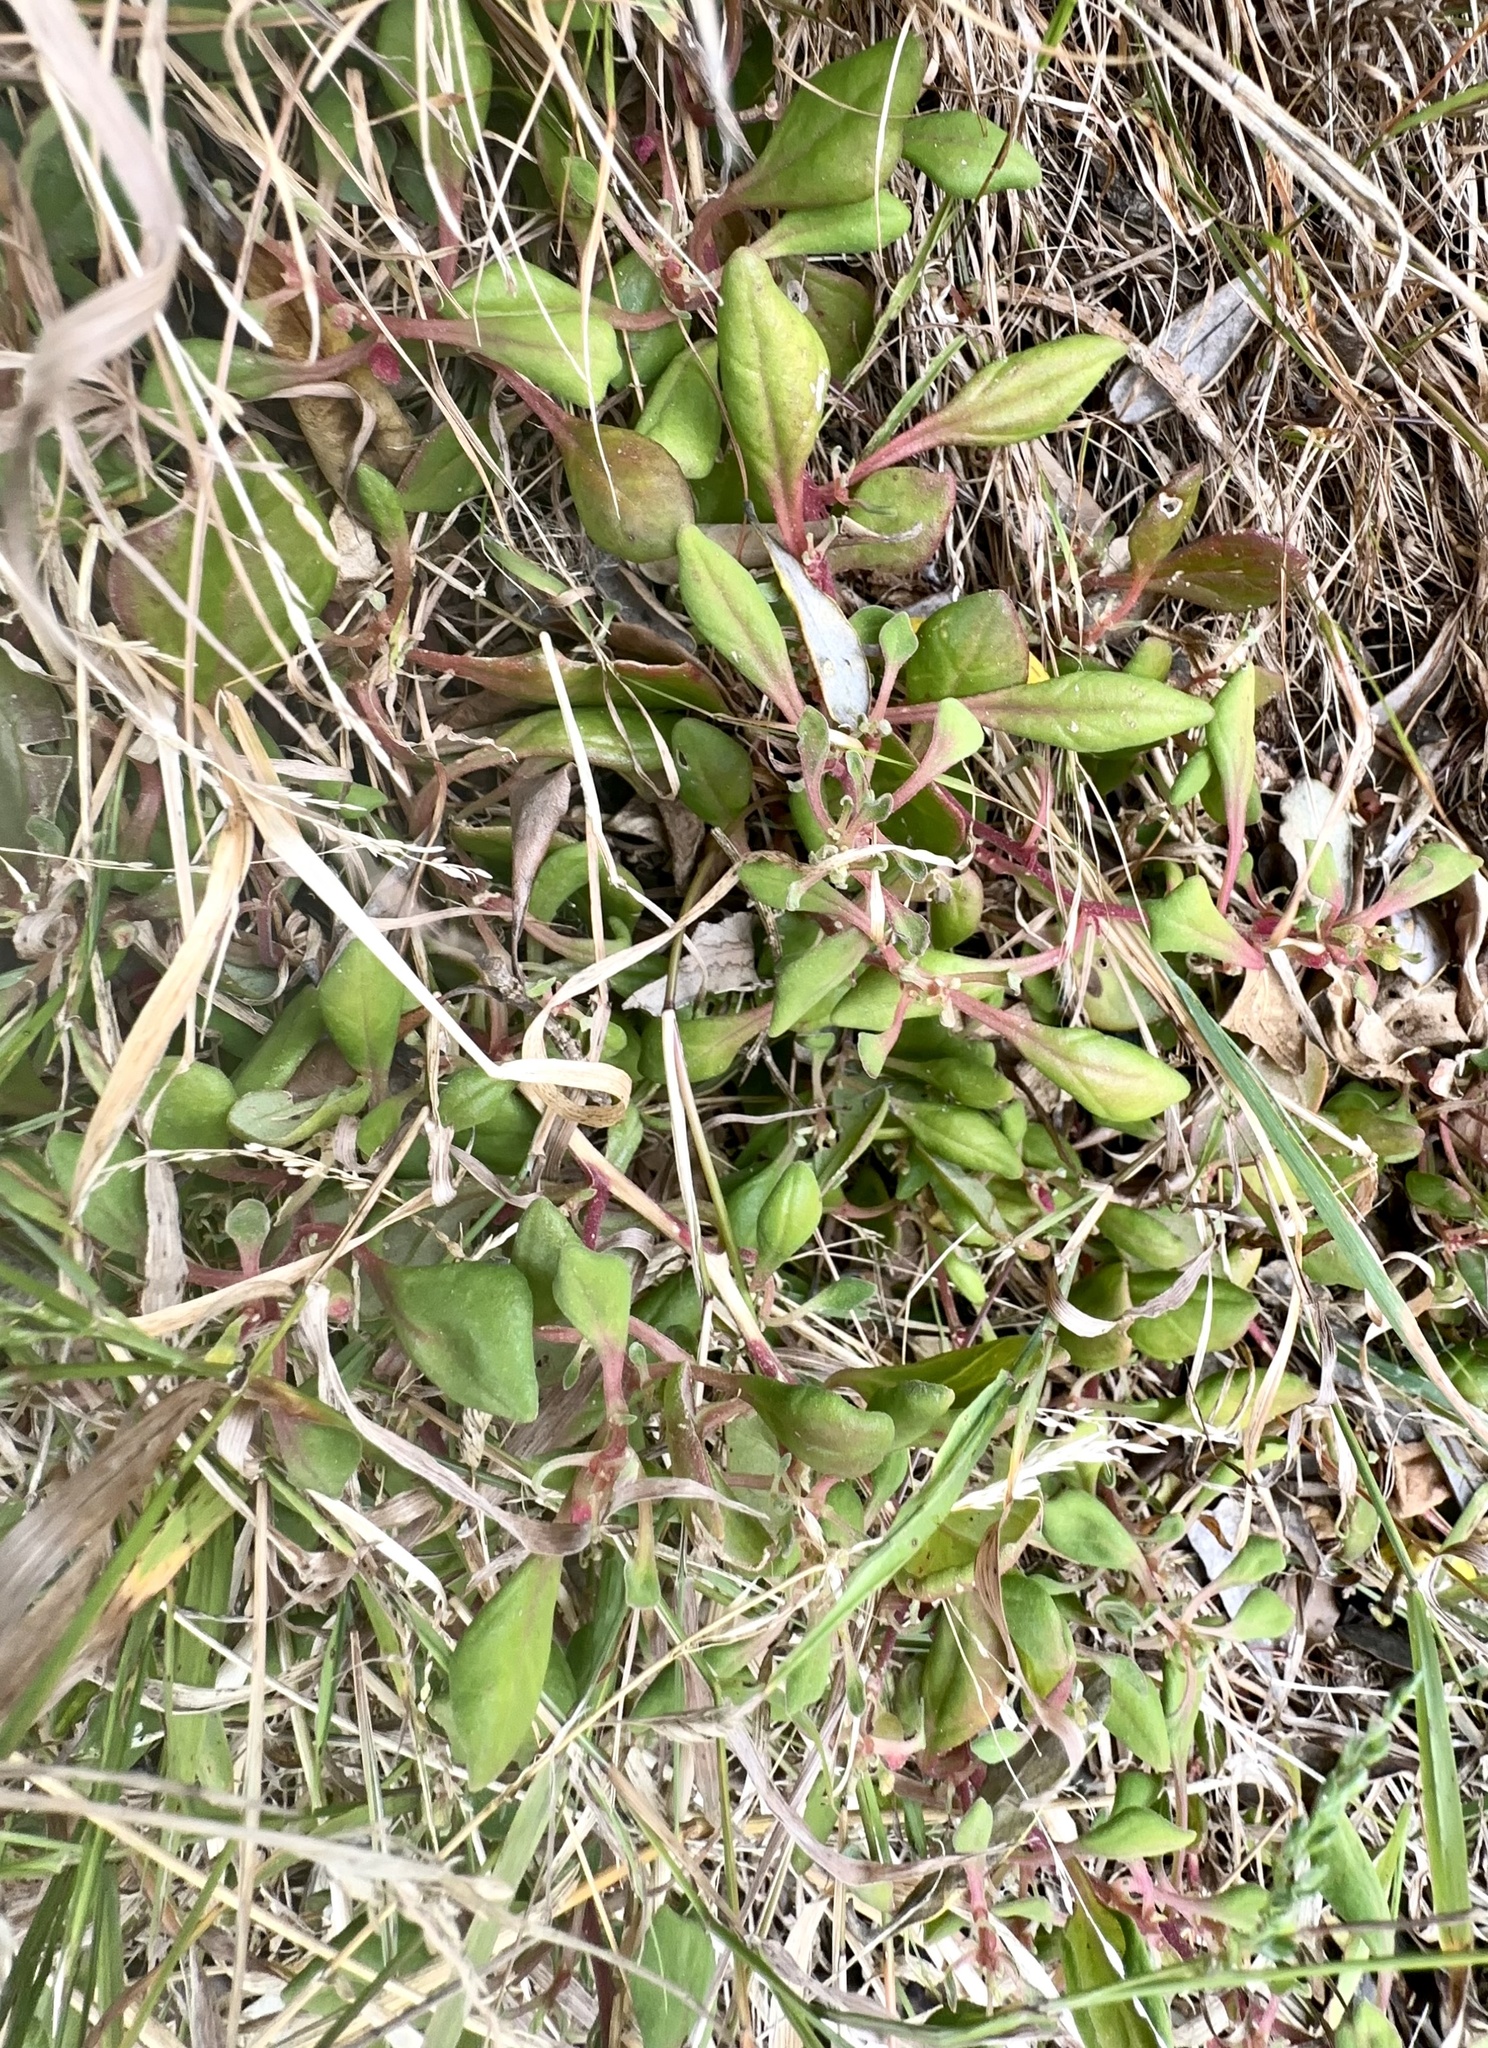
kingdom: Plantae
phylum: Tracheophyta
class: Magnoliopsida
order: Caryophyllales
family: Aizoaceae
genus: Tetragonia
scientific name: Tetragonia implexicoma
